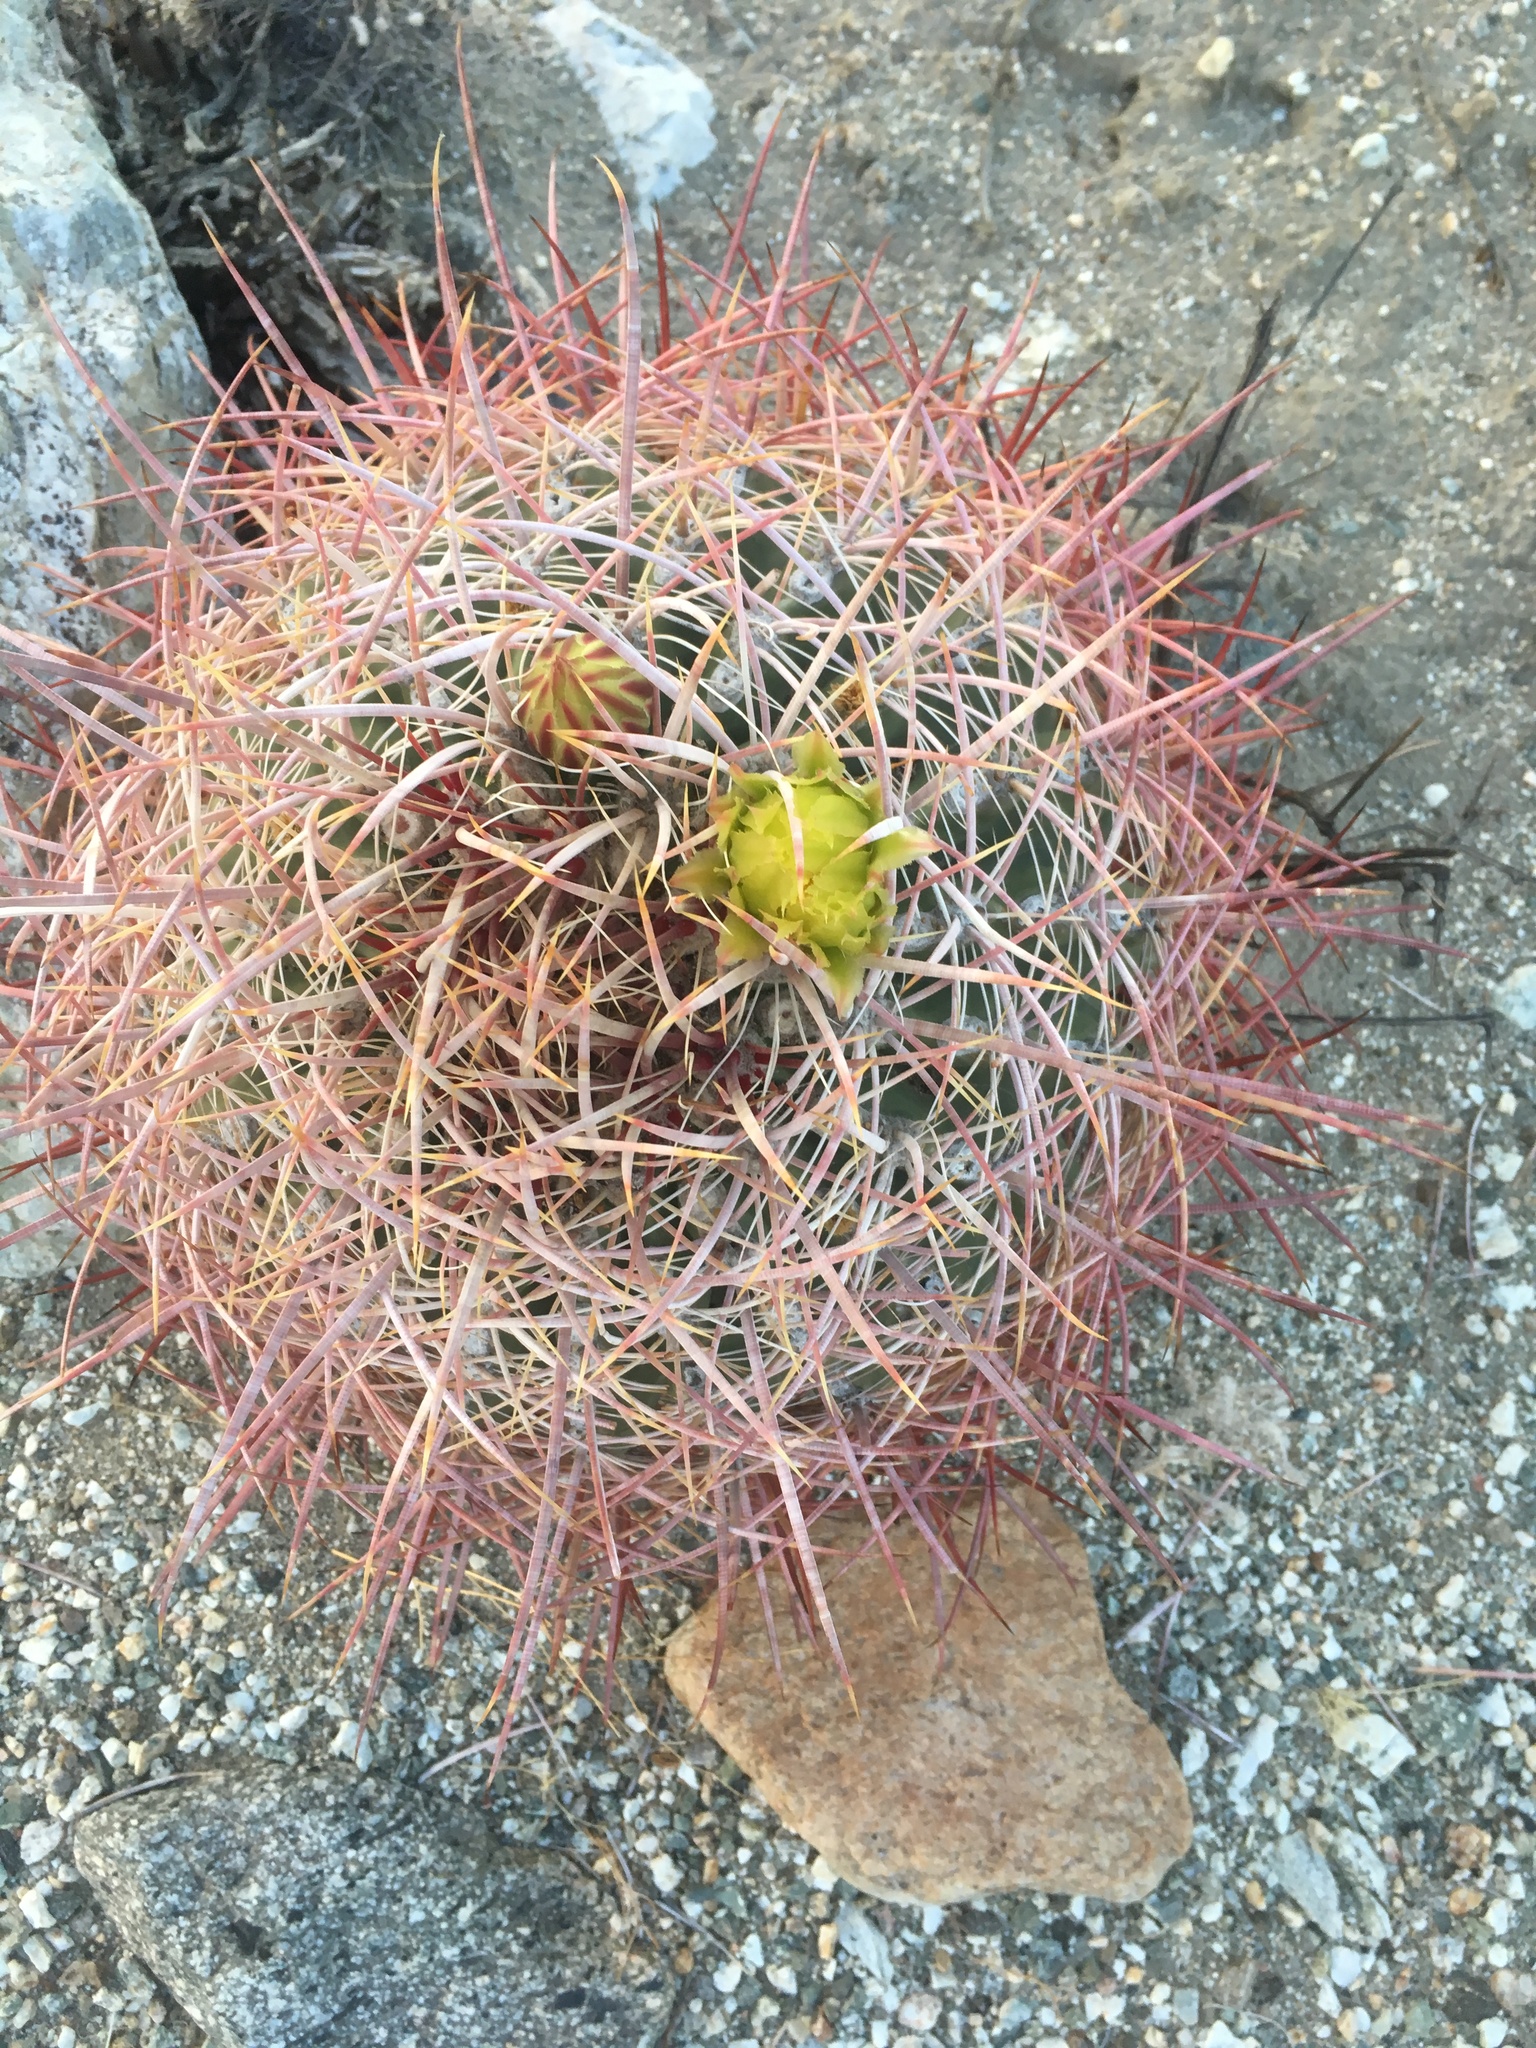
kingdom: Plantae
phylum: Tracheophyta
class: Magnoliopsida
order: Caryophyllales
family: Cactaceae
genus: Ferocactus
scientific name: Ferocactus cylindraceus
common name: California barrel cactus
